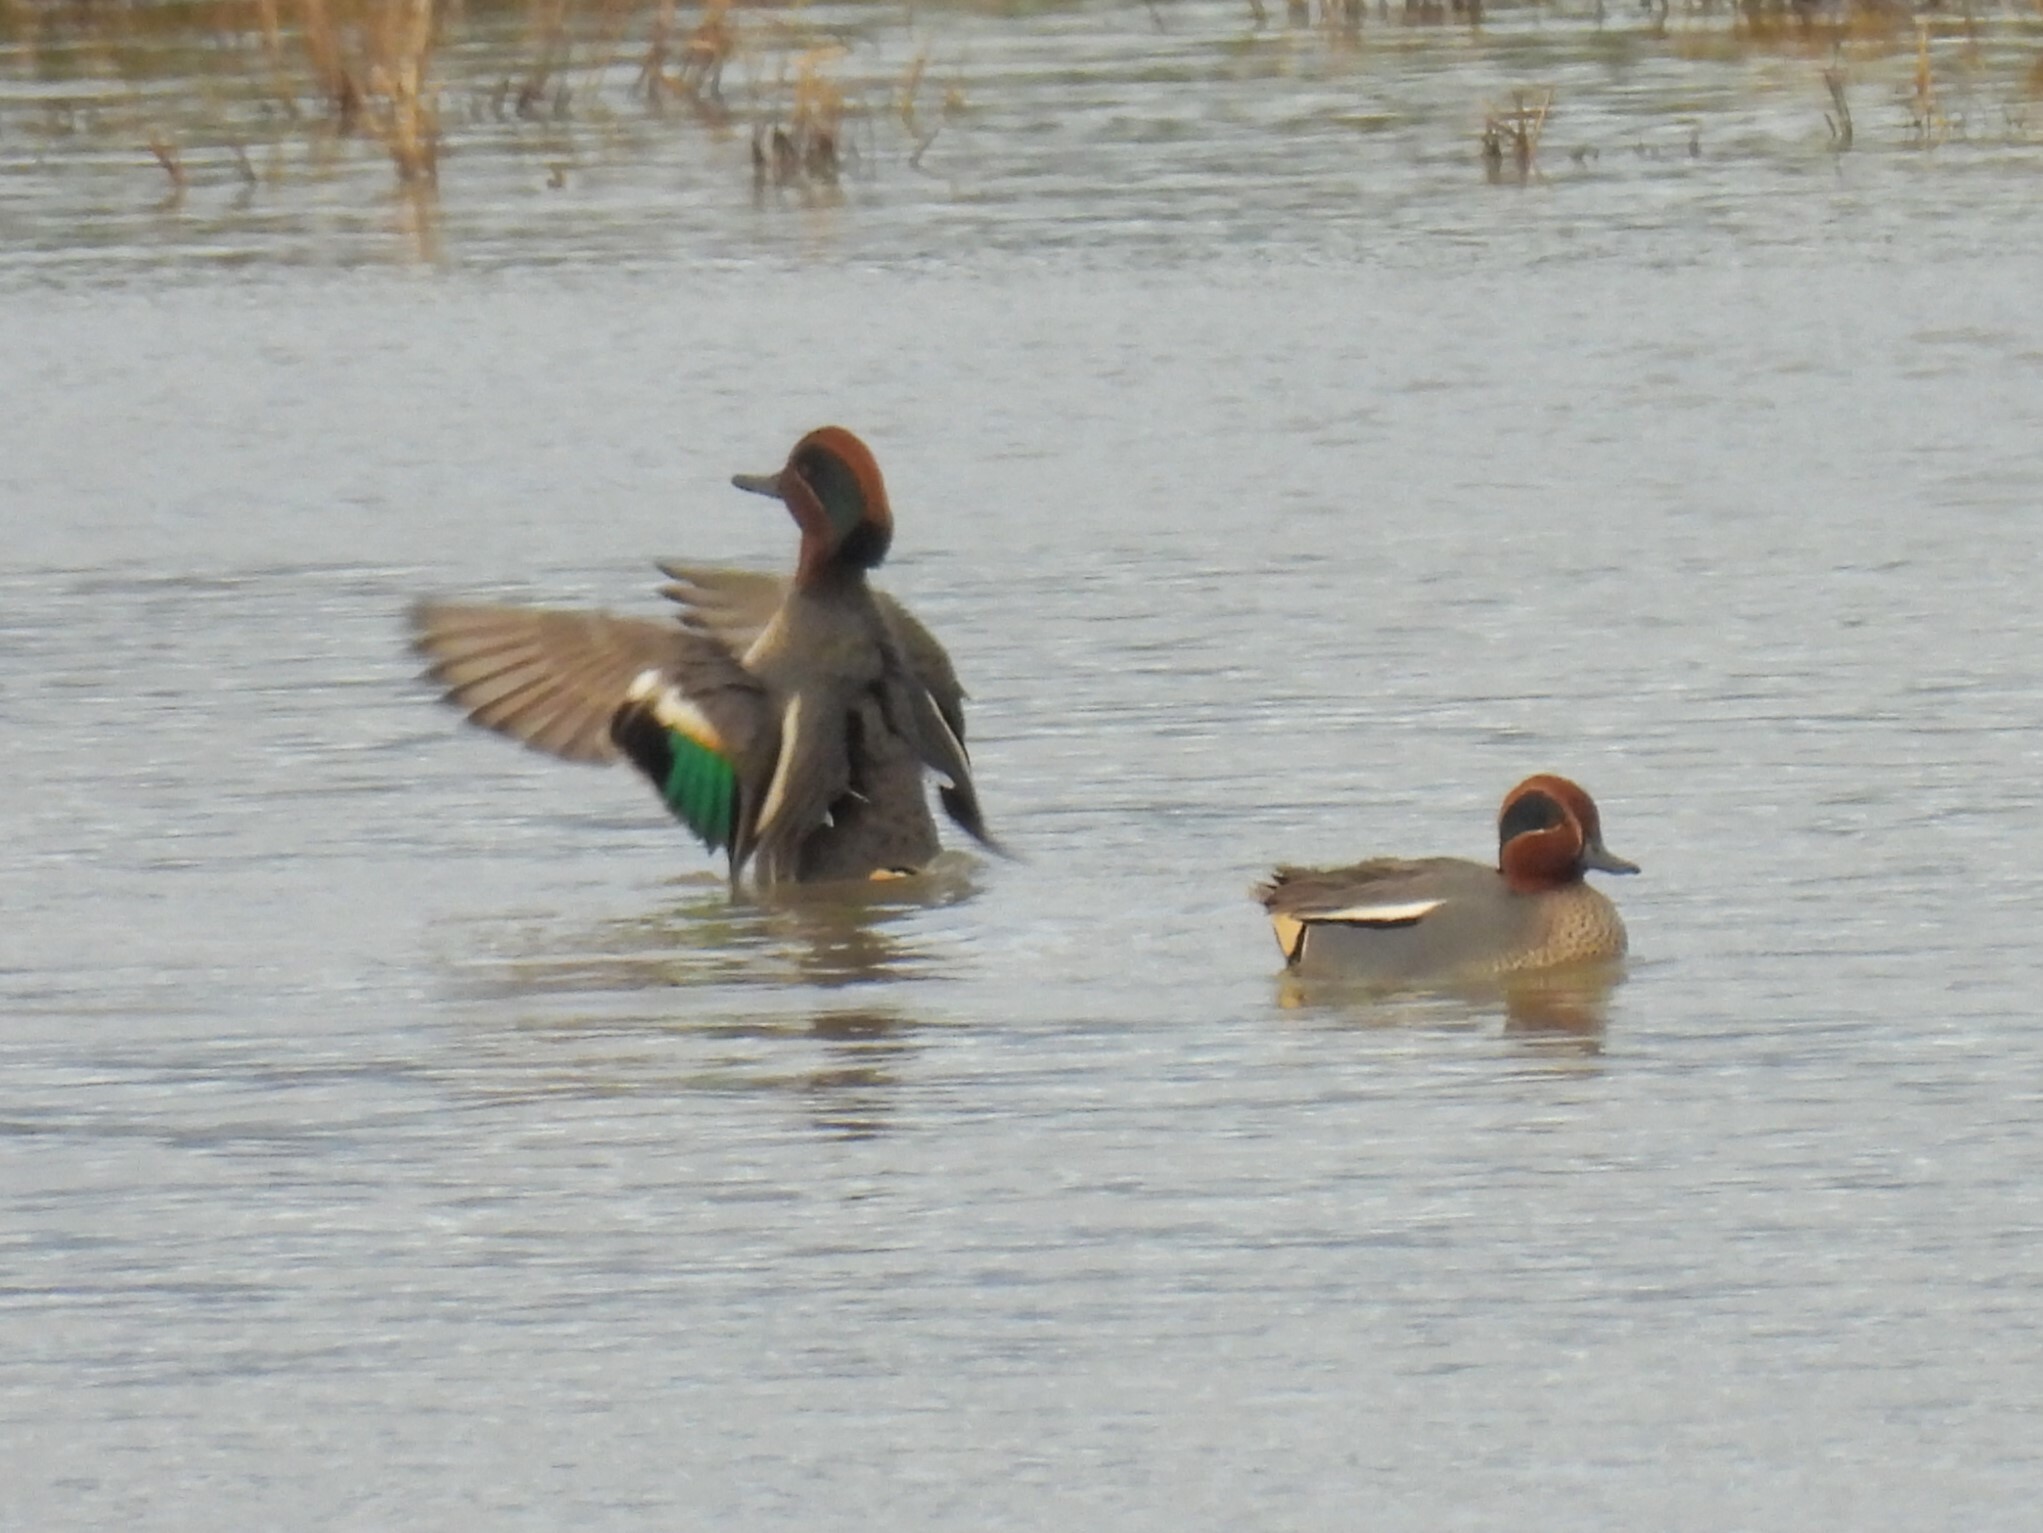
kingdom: Animalia
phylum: Chordata
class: Aves
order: Anseriformes
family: Anatidae
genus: Anas
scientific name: Anas crecca
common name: Eurasian teal
